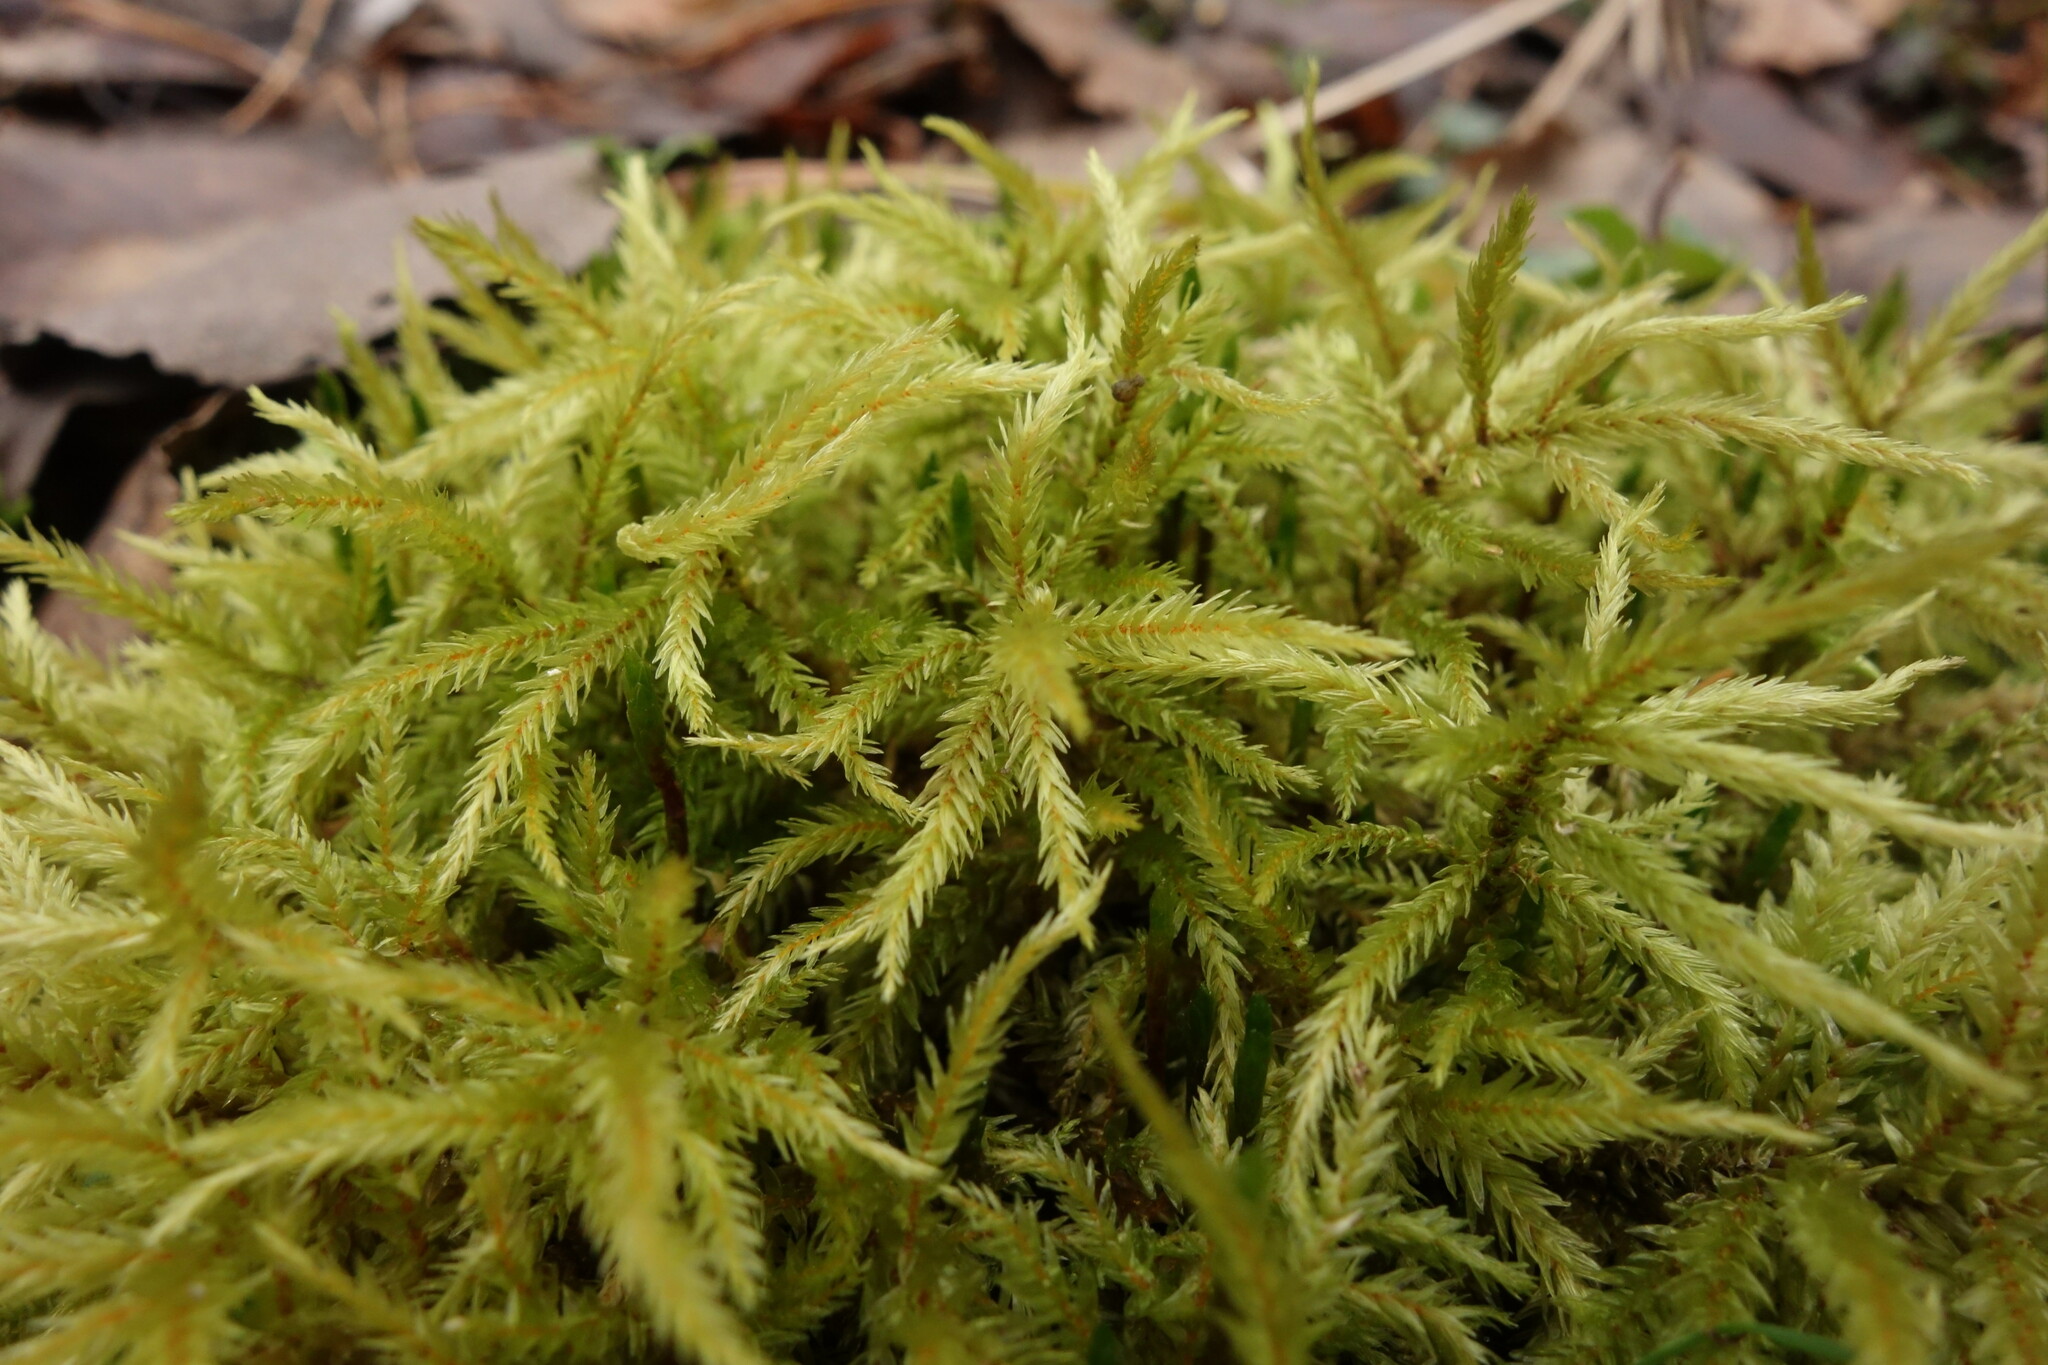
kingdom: Plantae
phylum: Bryophyta
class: Bryopsida
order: Hypnales
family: Climaciaceae
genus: Climacium
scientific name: Climacium dendroides
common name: Northern tree moss
